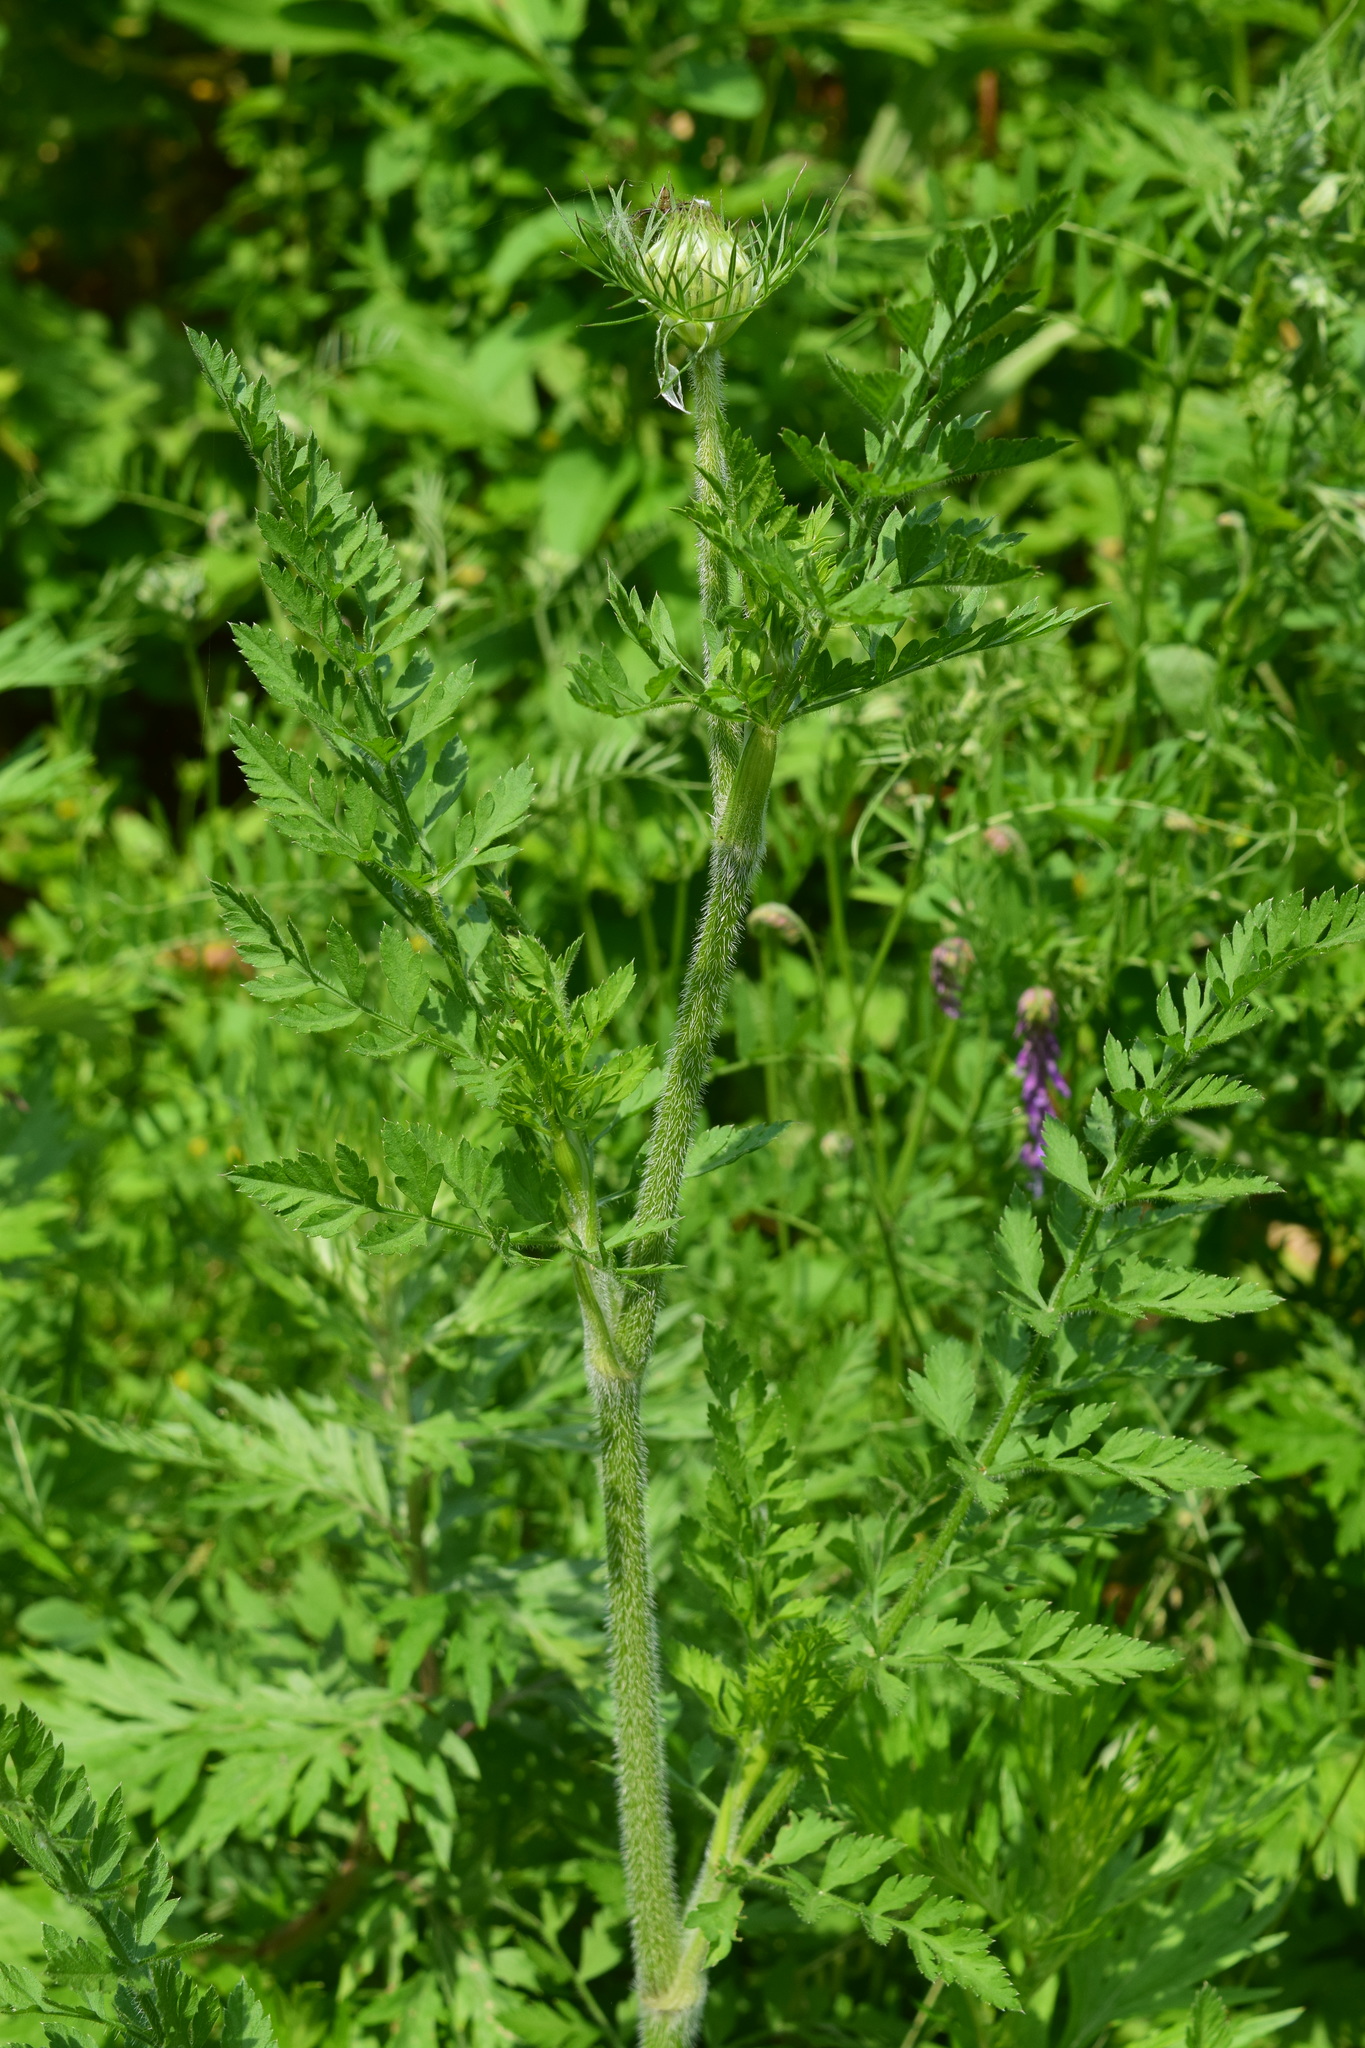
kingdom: Plantae
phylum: Tracheophyta
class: Magnoliopsida
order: Apiales
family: Apiaceae
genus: Daucus
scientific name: Daucus carota
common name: Wild carrot
